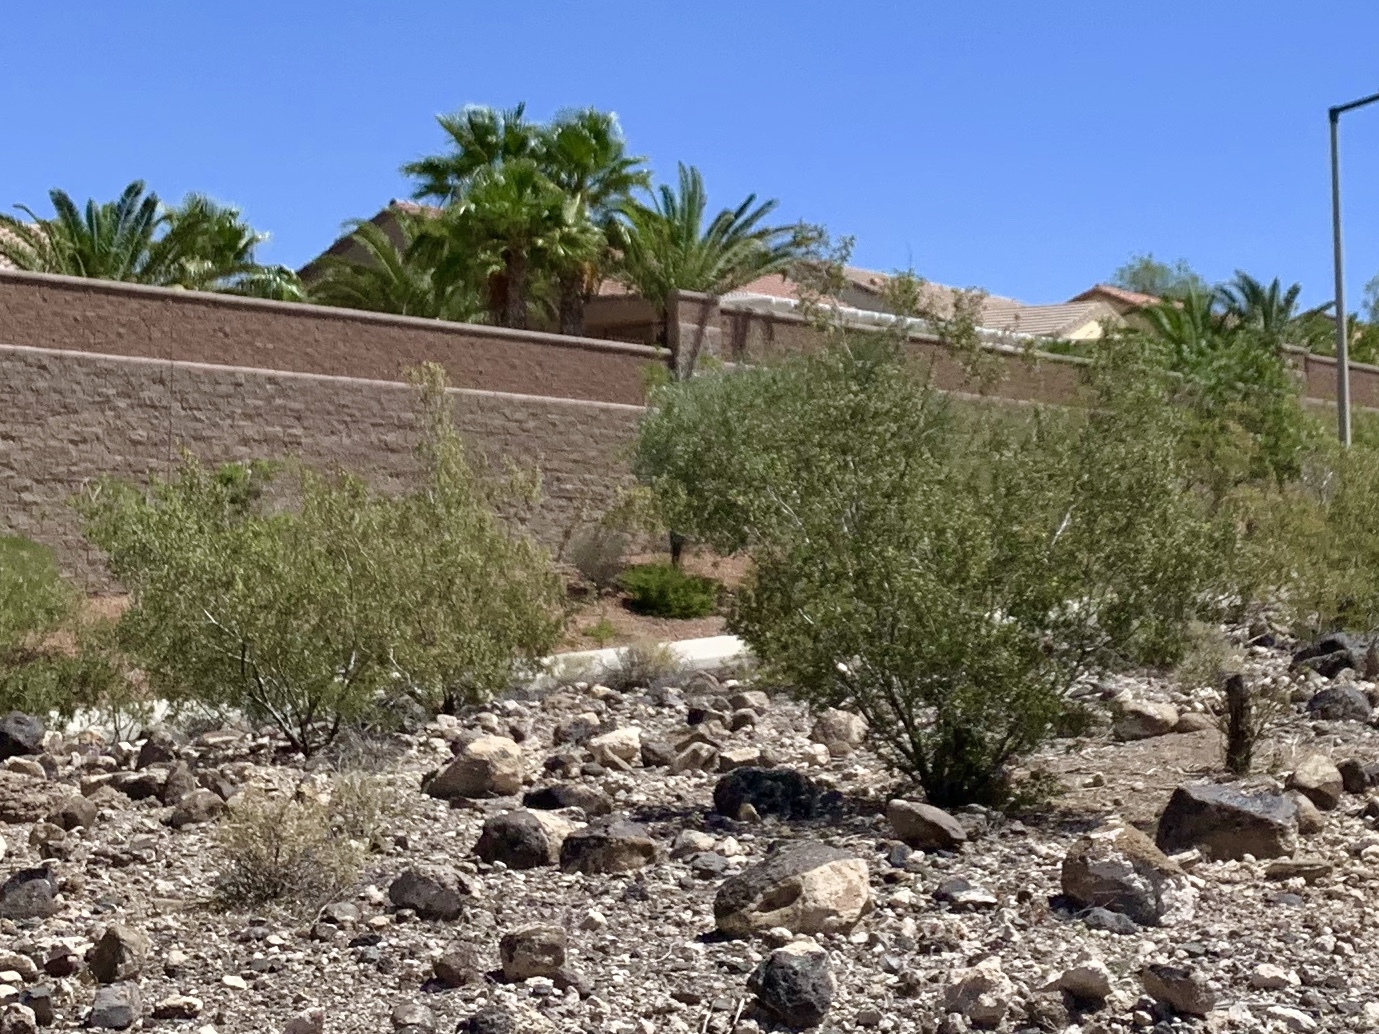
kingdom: Plantae
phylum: Tracheophyta
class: Magnoliopsida
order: Zygophyllales
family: Zygophyllaceae
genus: Larrea
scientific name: Larrea tridentata
